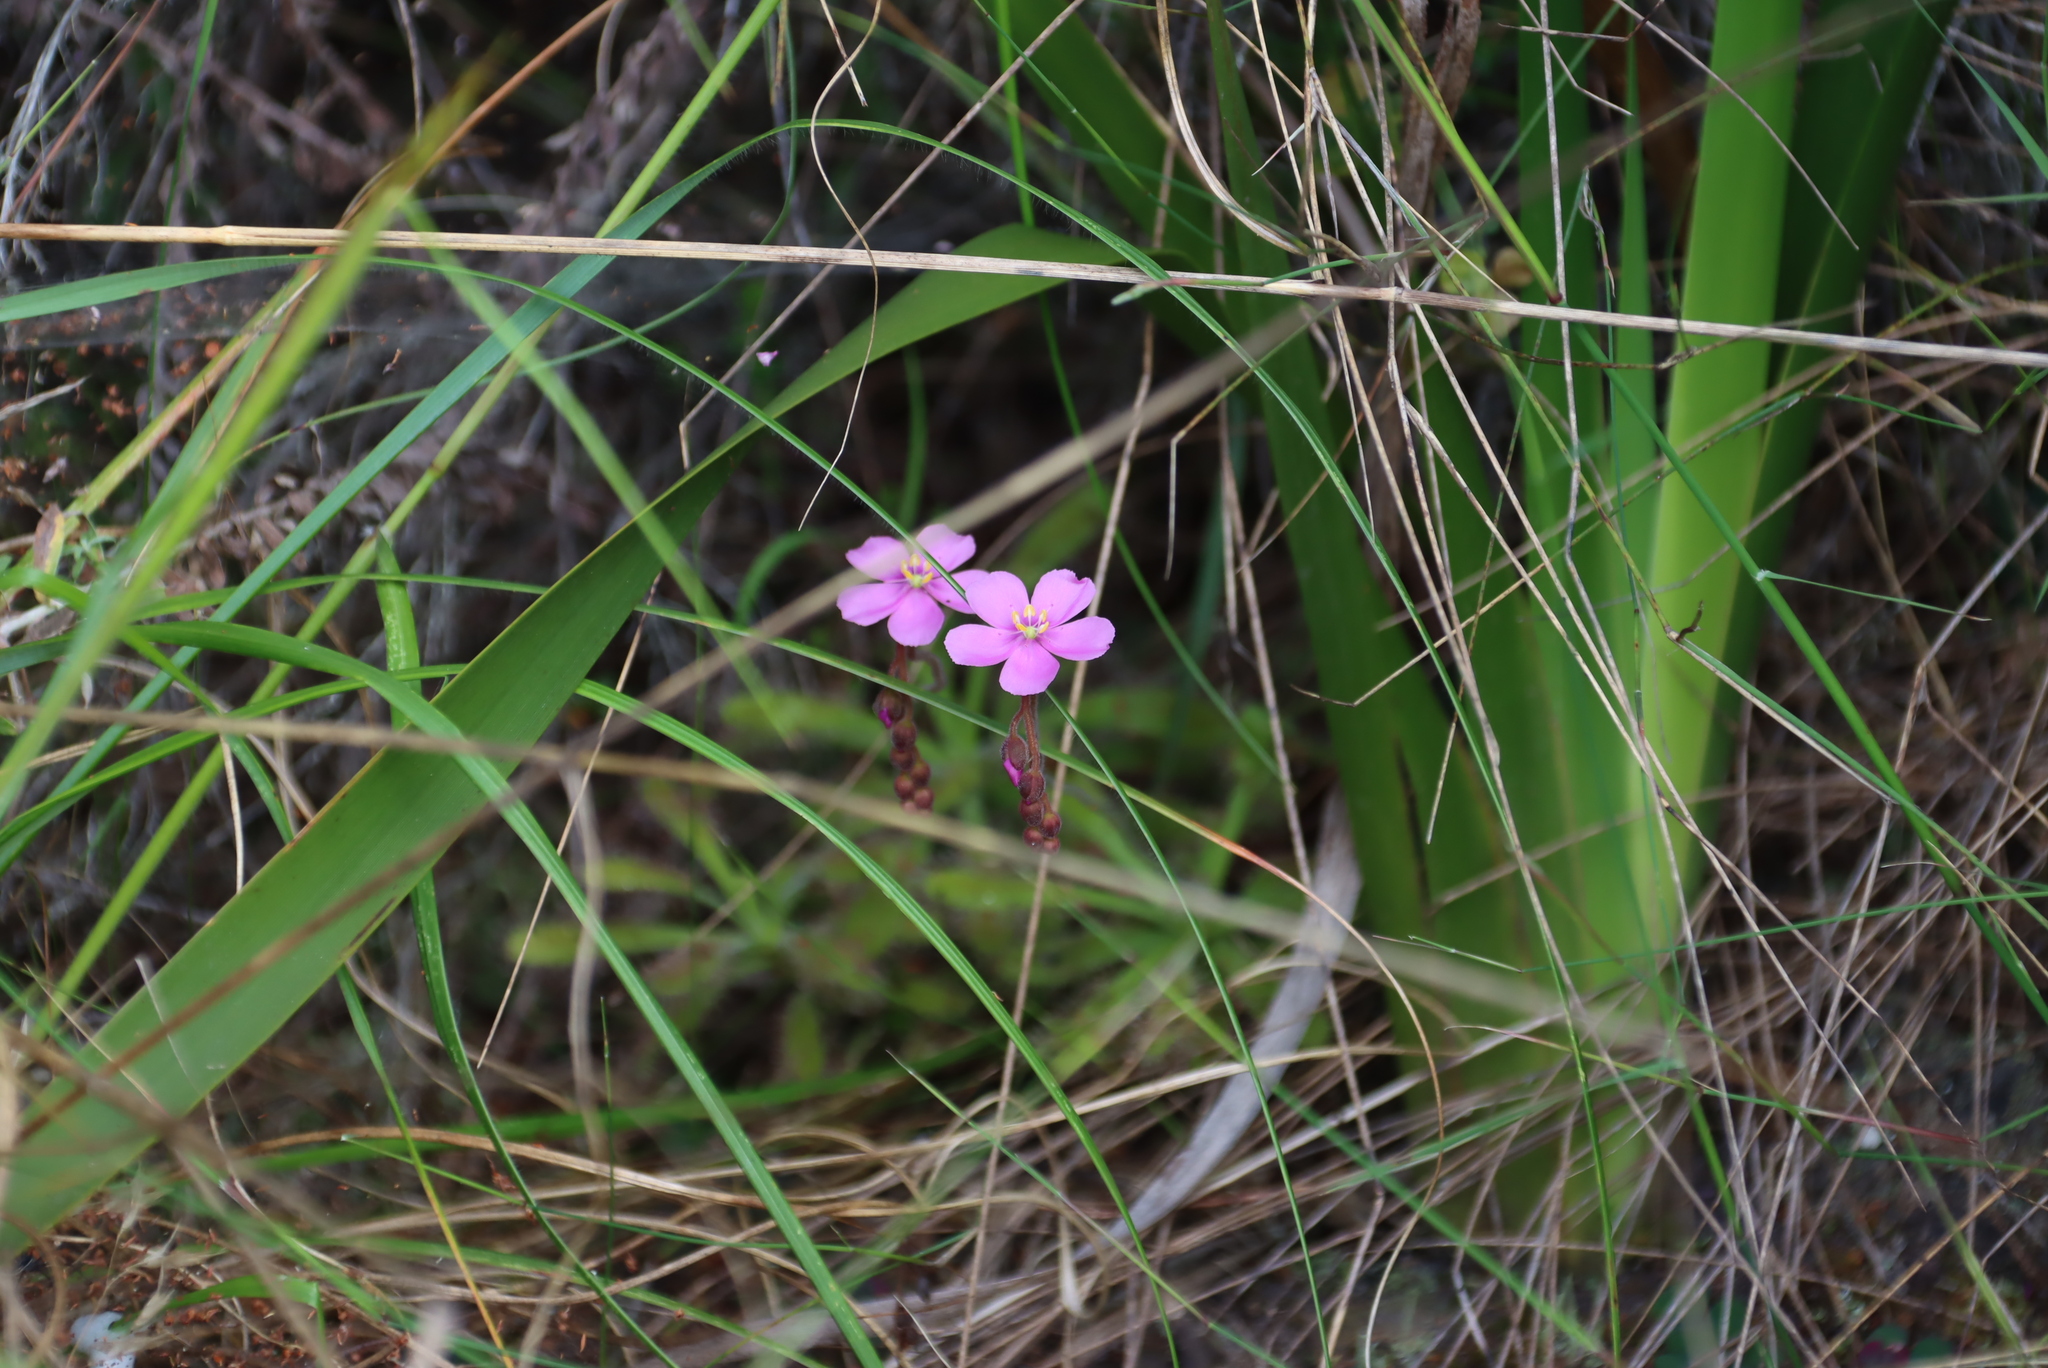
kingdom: Plantae
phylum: Tracheophyta
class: Magnoliopsida
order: Caryophyllales
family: Droseraceae
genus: Drosera
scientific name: Drosera hilaris
